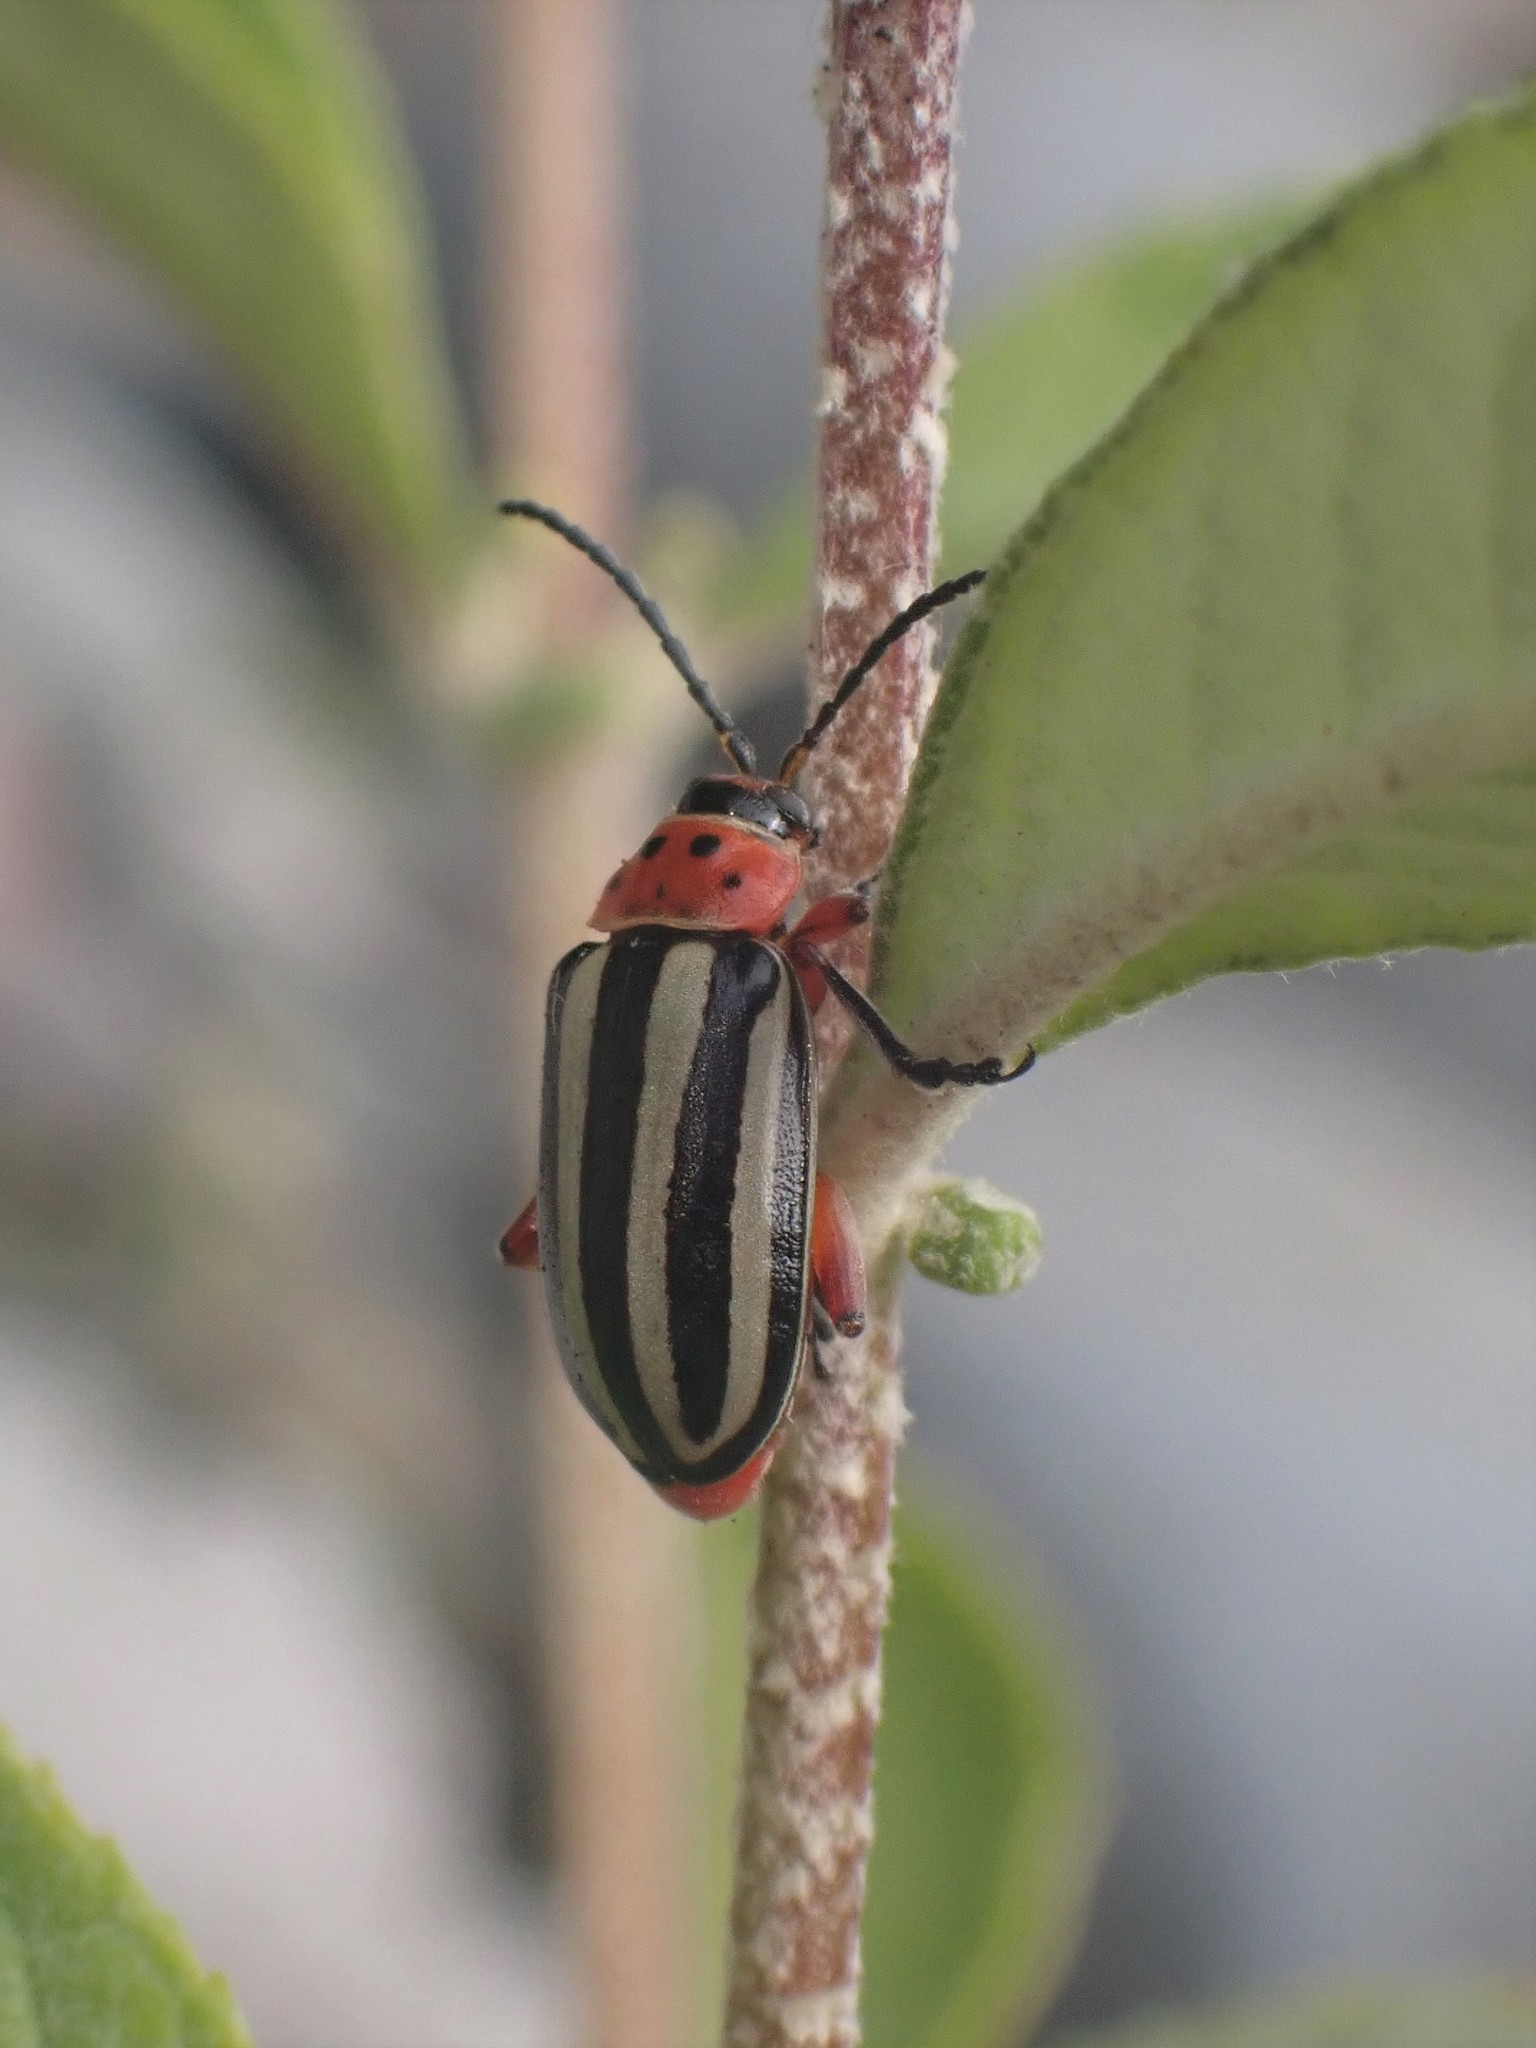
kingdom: Animalia
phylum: Arthropoda
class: Insecta
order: Coleoptera
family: Chrysomelidae
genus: Disonycha
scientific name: Disonycha latiovittata
